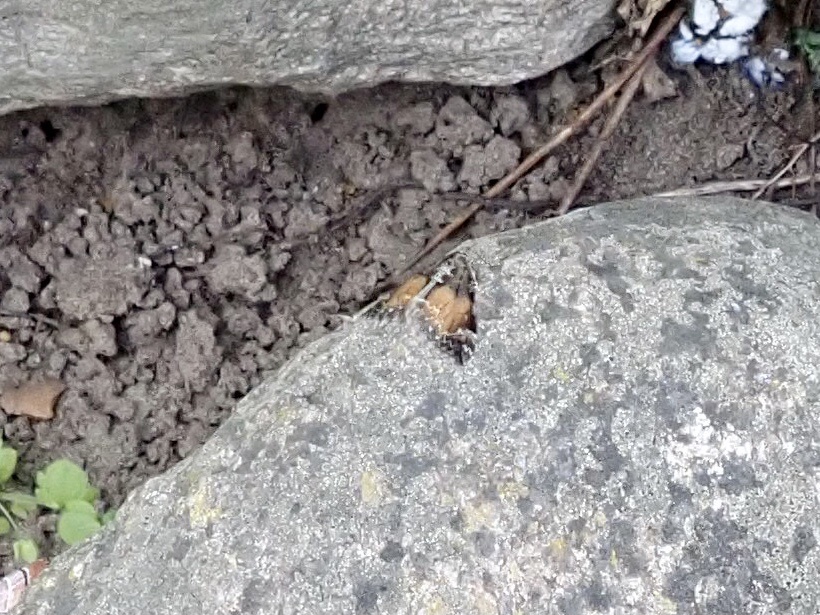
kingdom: Animalia
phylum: Arthropoda
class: Insecta
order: Lepidoptera
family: Geometridae
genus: Dysstroma
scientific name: Dysstroma truncata
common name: Common marbled carpet
